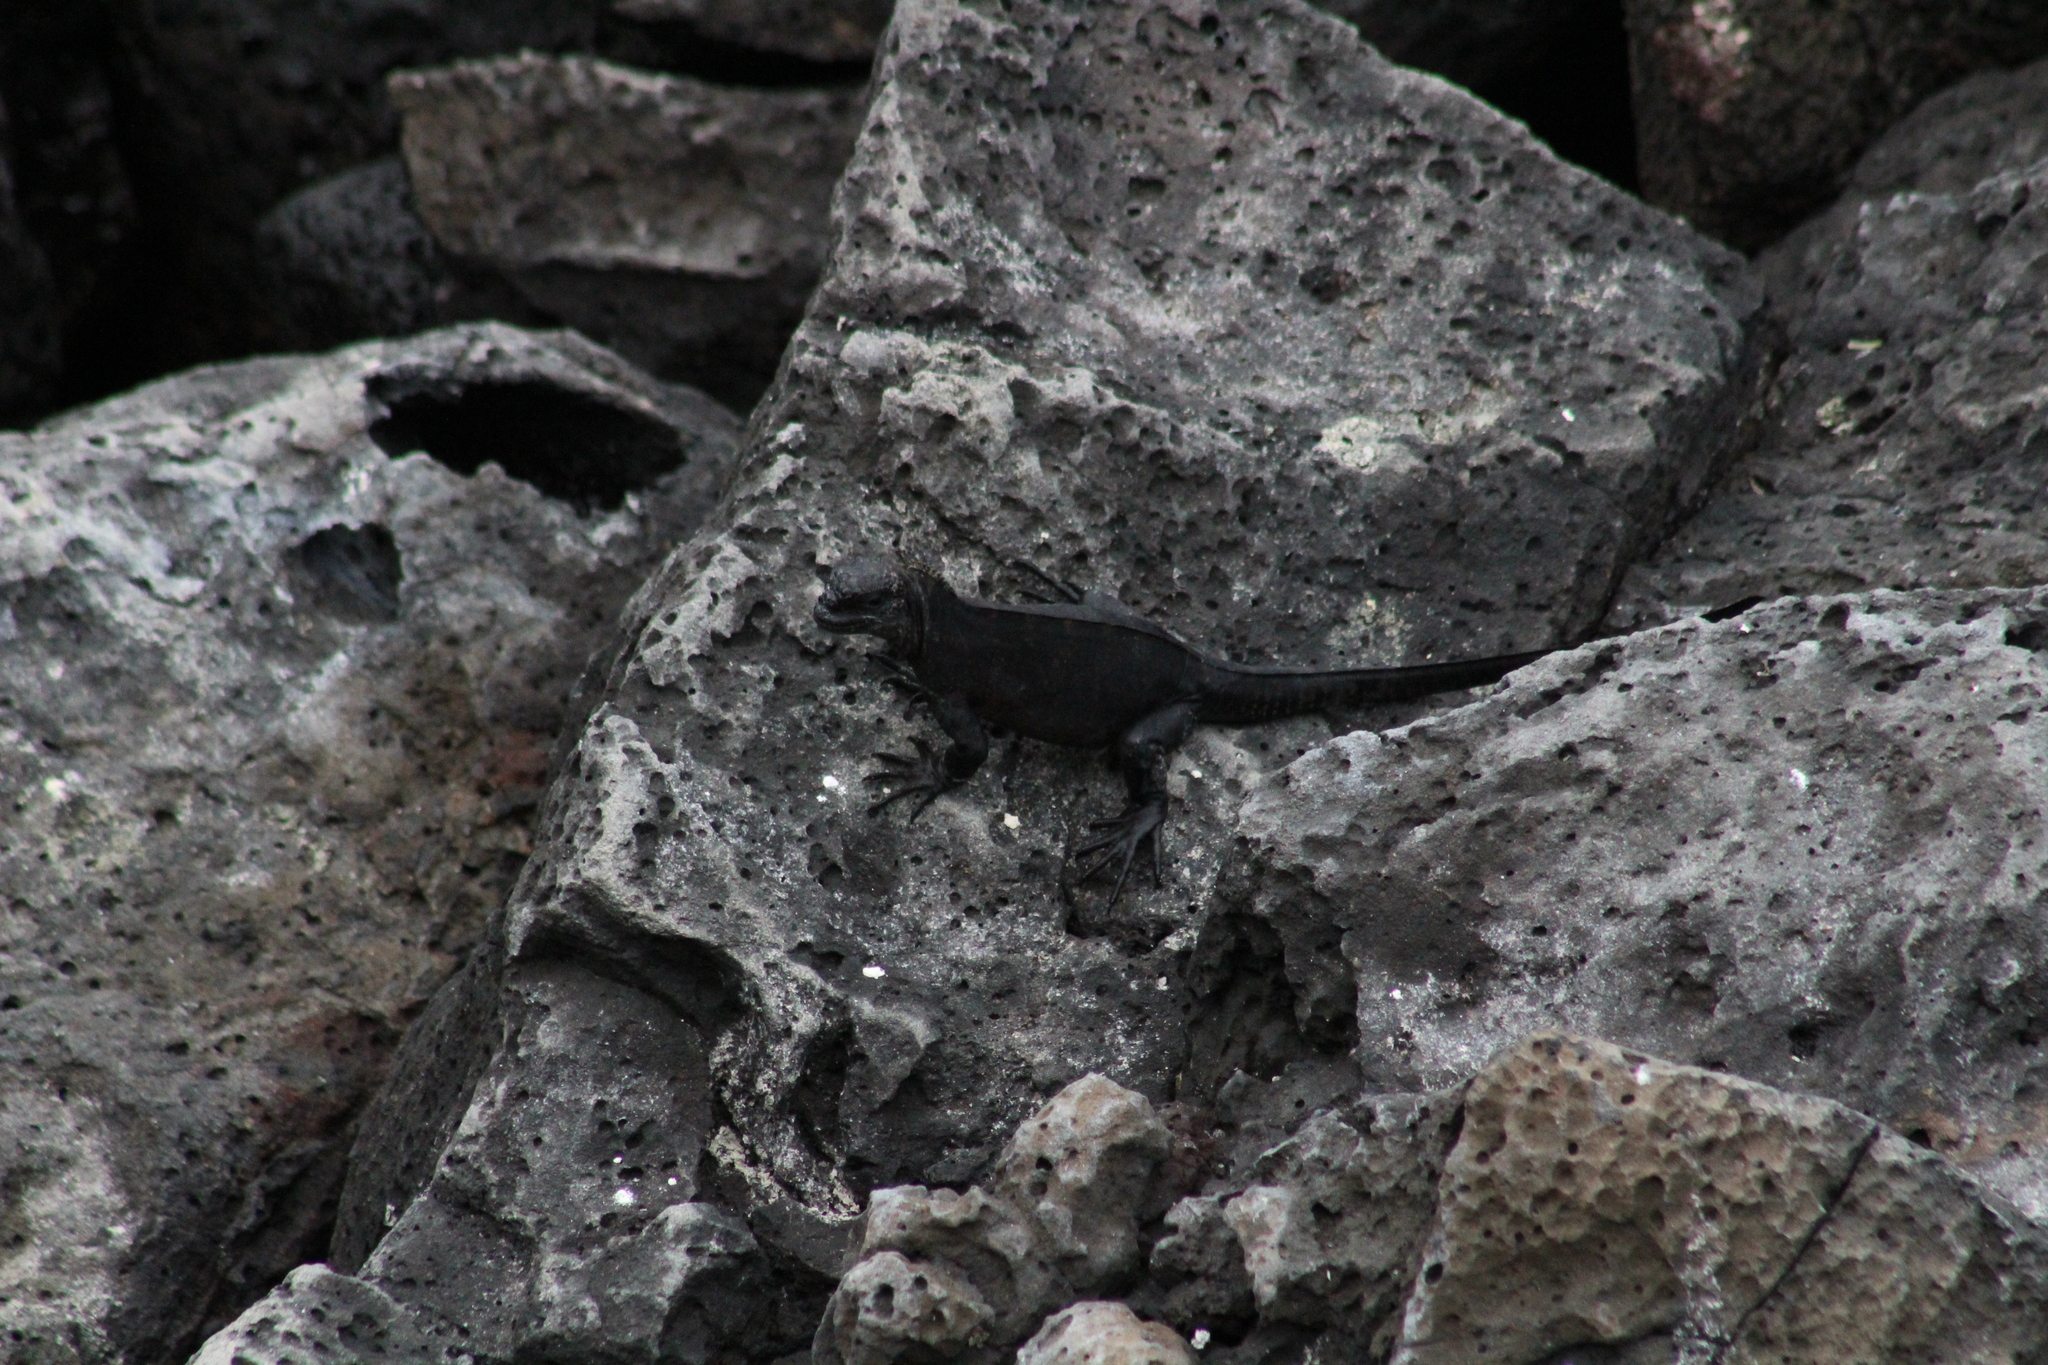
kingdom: Animalia
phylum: Chordata
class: Squamata
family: Iguanidae
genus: Amblyrhynchus
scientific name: Amblyrhynchus cristatus
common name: Marine iguana
